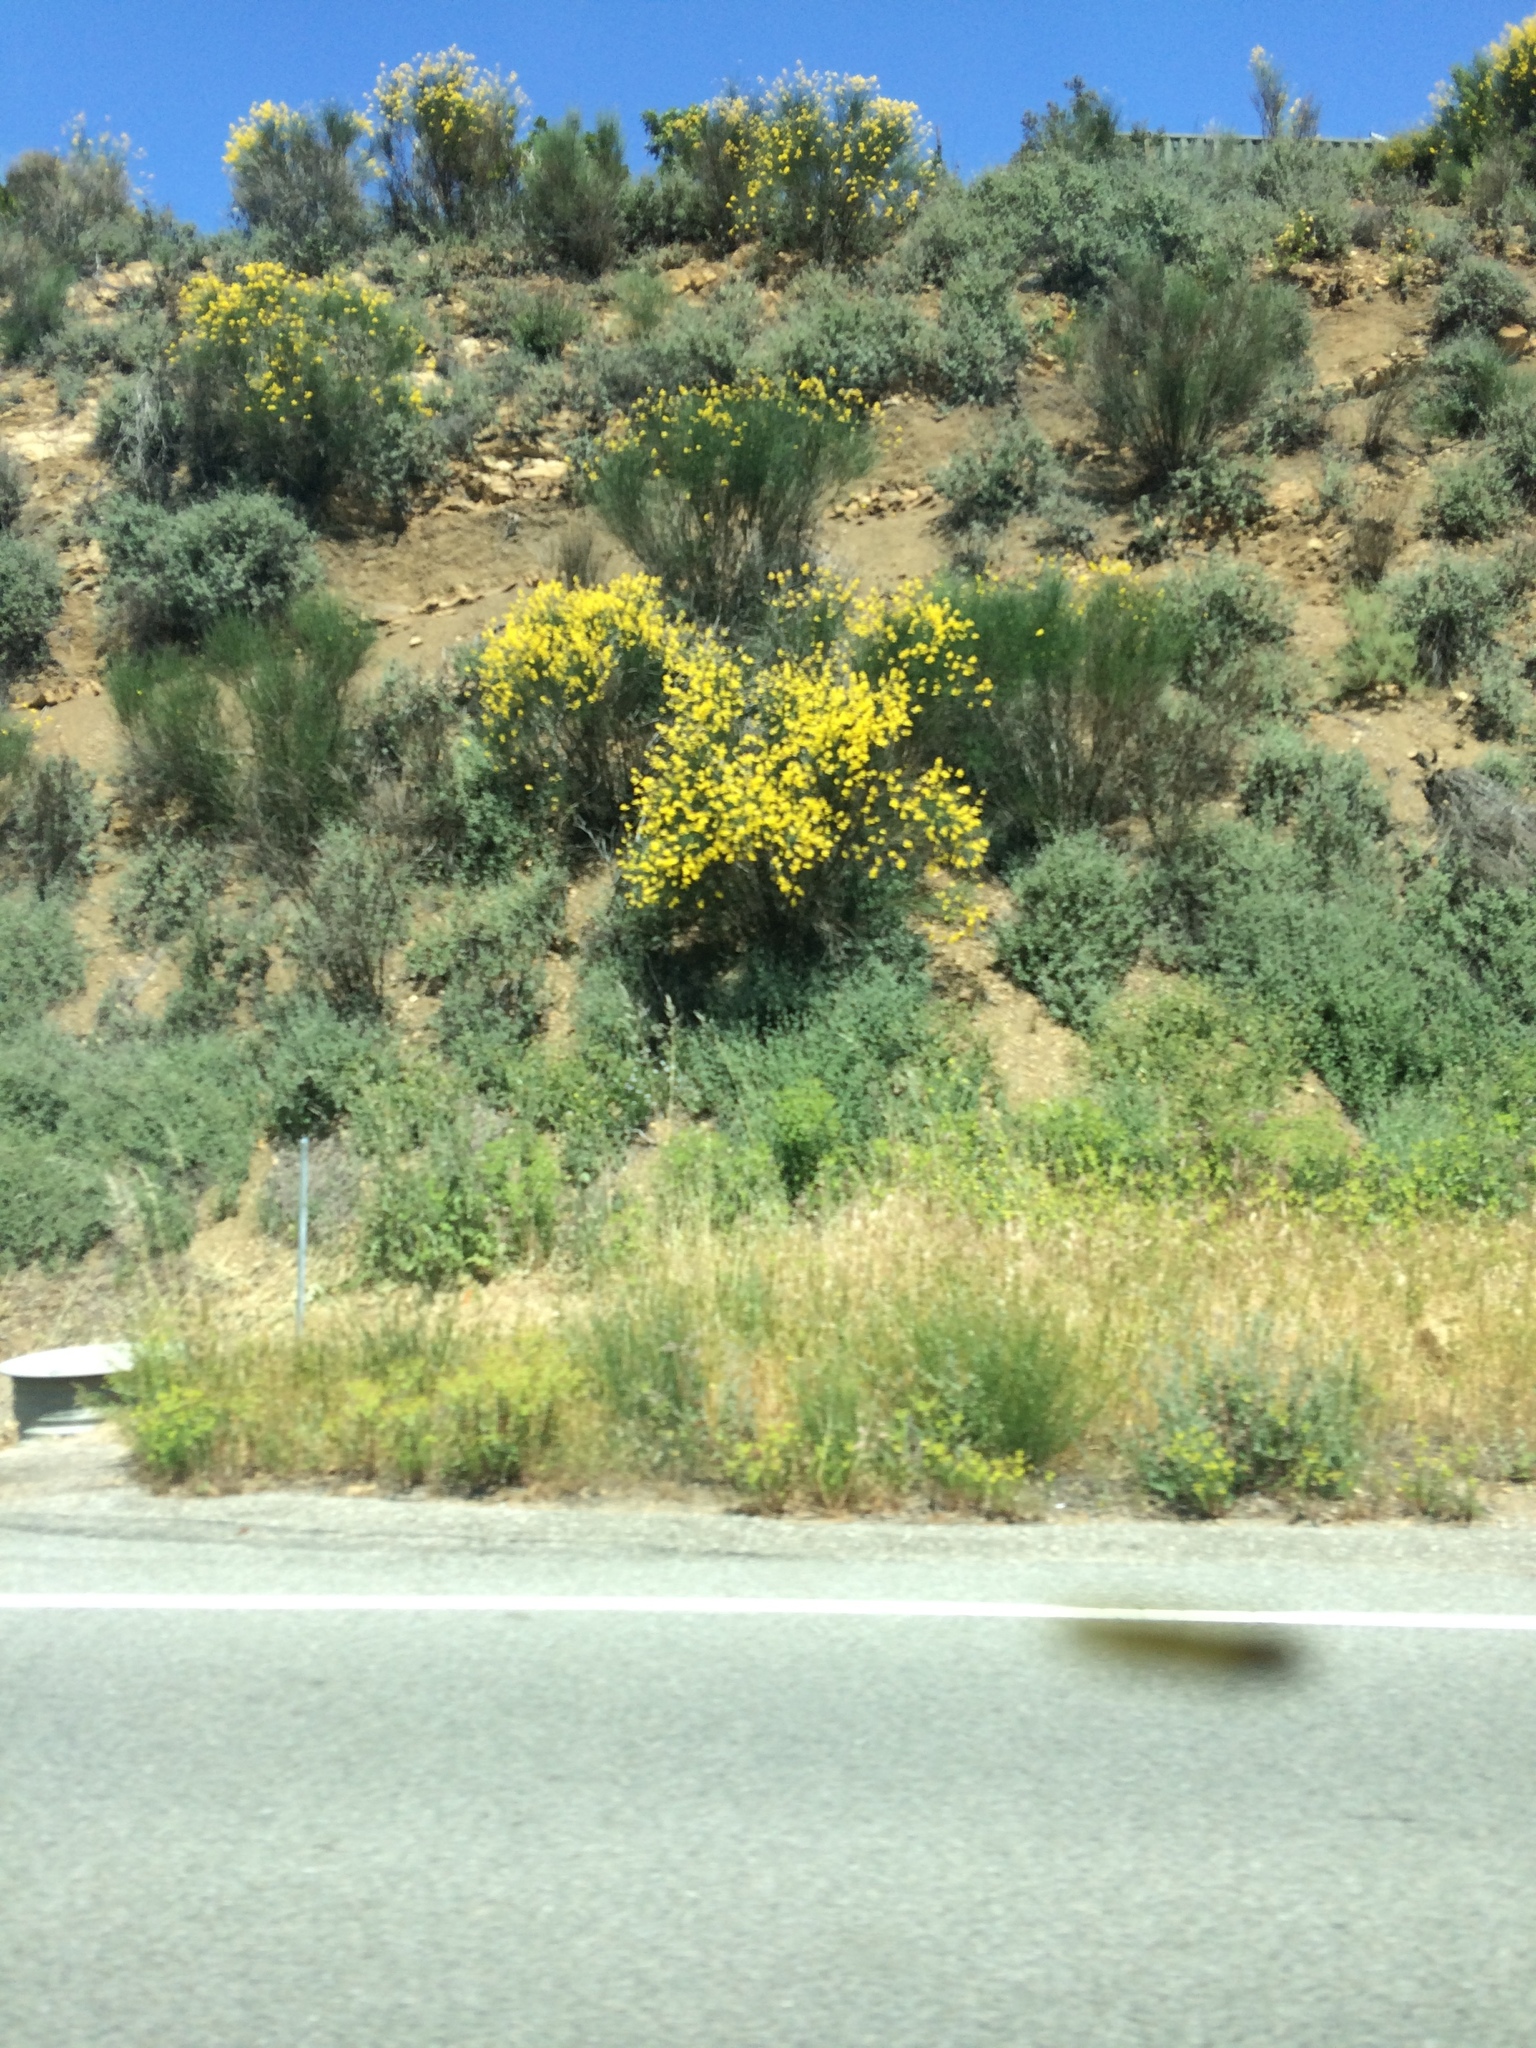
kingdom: Plantae
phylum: Tracheophyta
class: Magnoliopsida
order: Fabales
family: Fabaceae
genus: Spartium
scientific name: Spartium junceum
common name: Spanish broom
